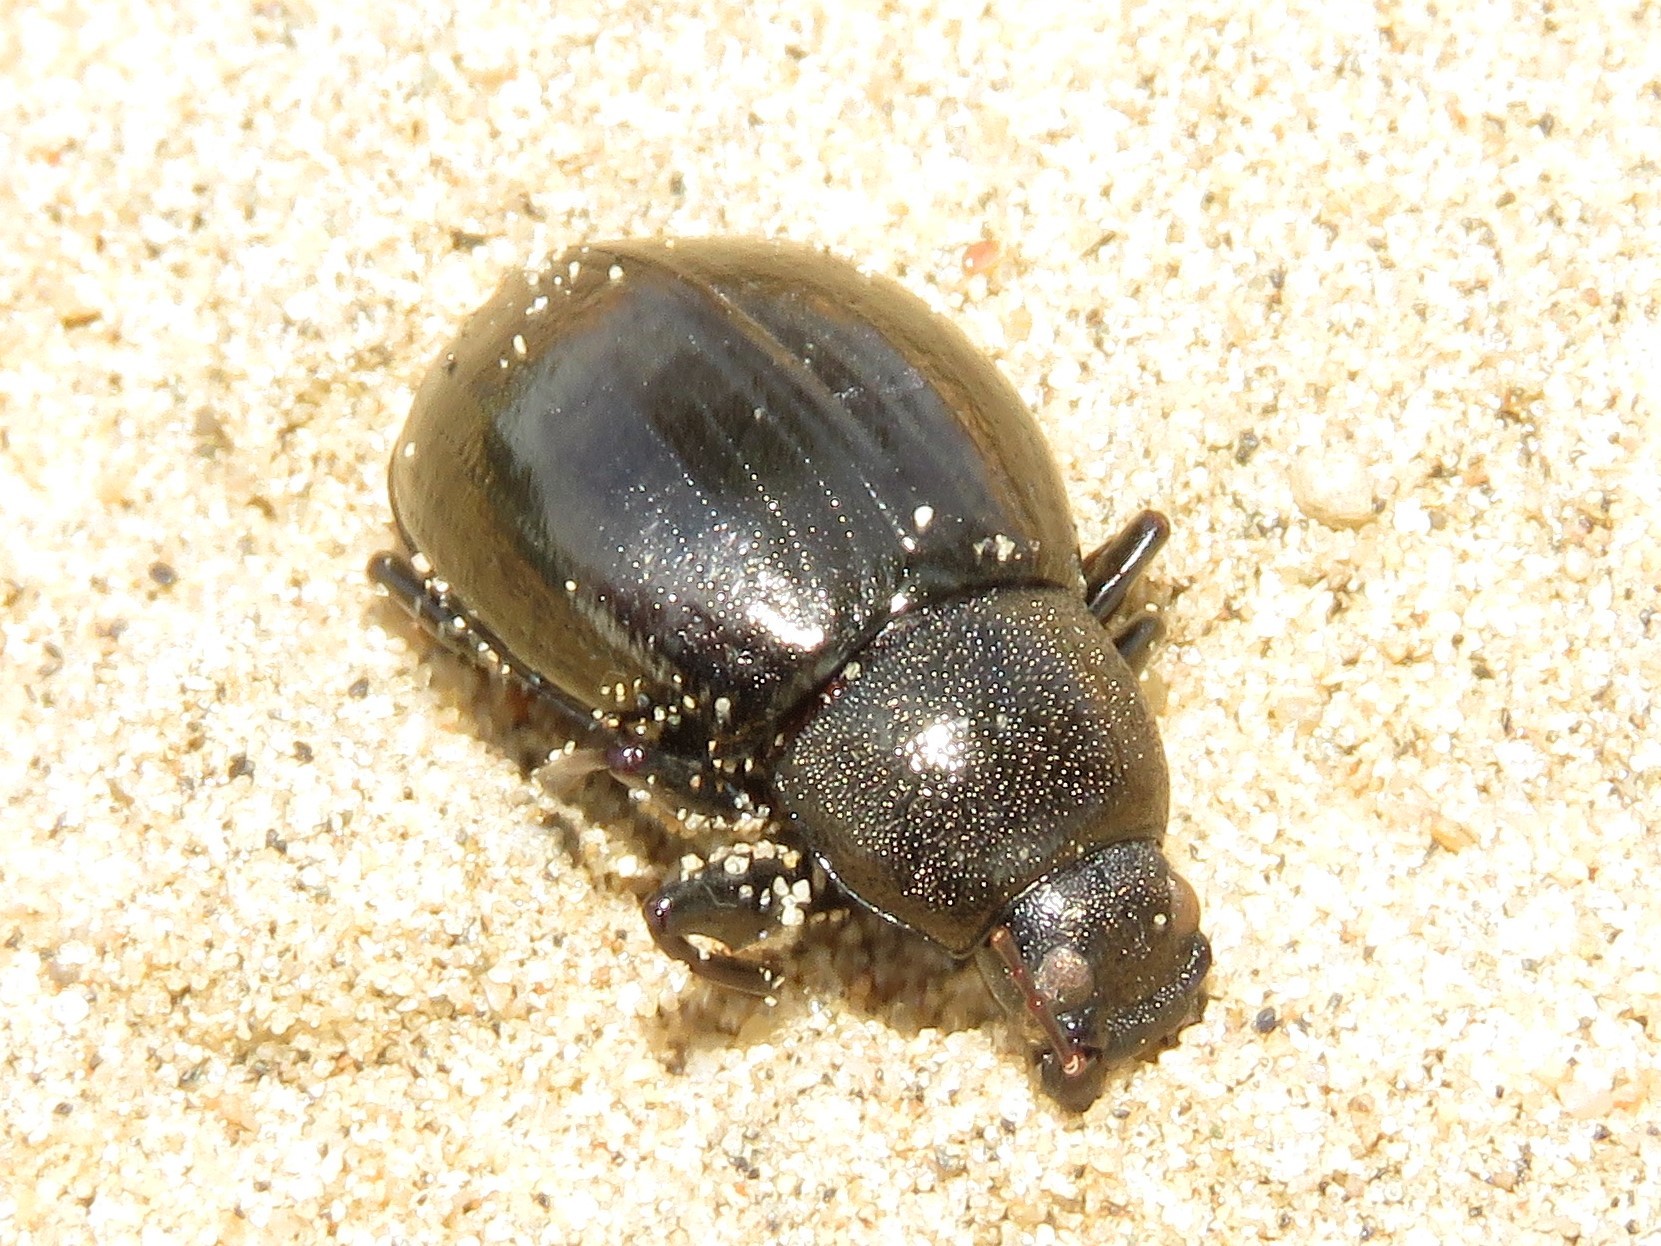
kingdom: Animalia
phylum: Arthropoda
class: Insecta
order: Coleoptera
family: Tenebrionidae
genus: Meracantha
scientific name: Meracantha contracta
